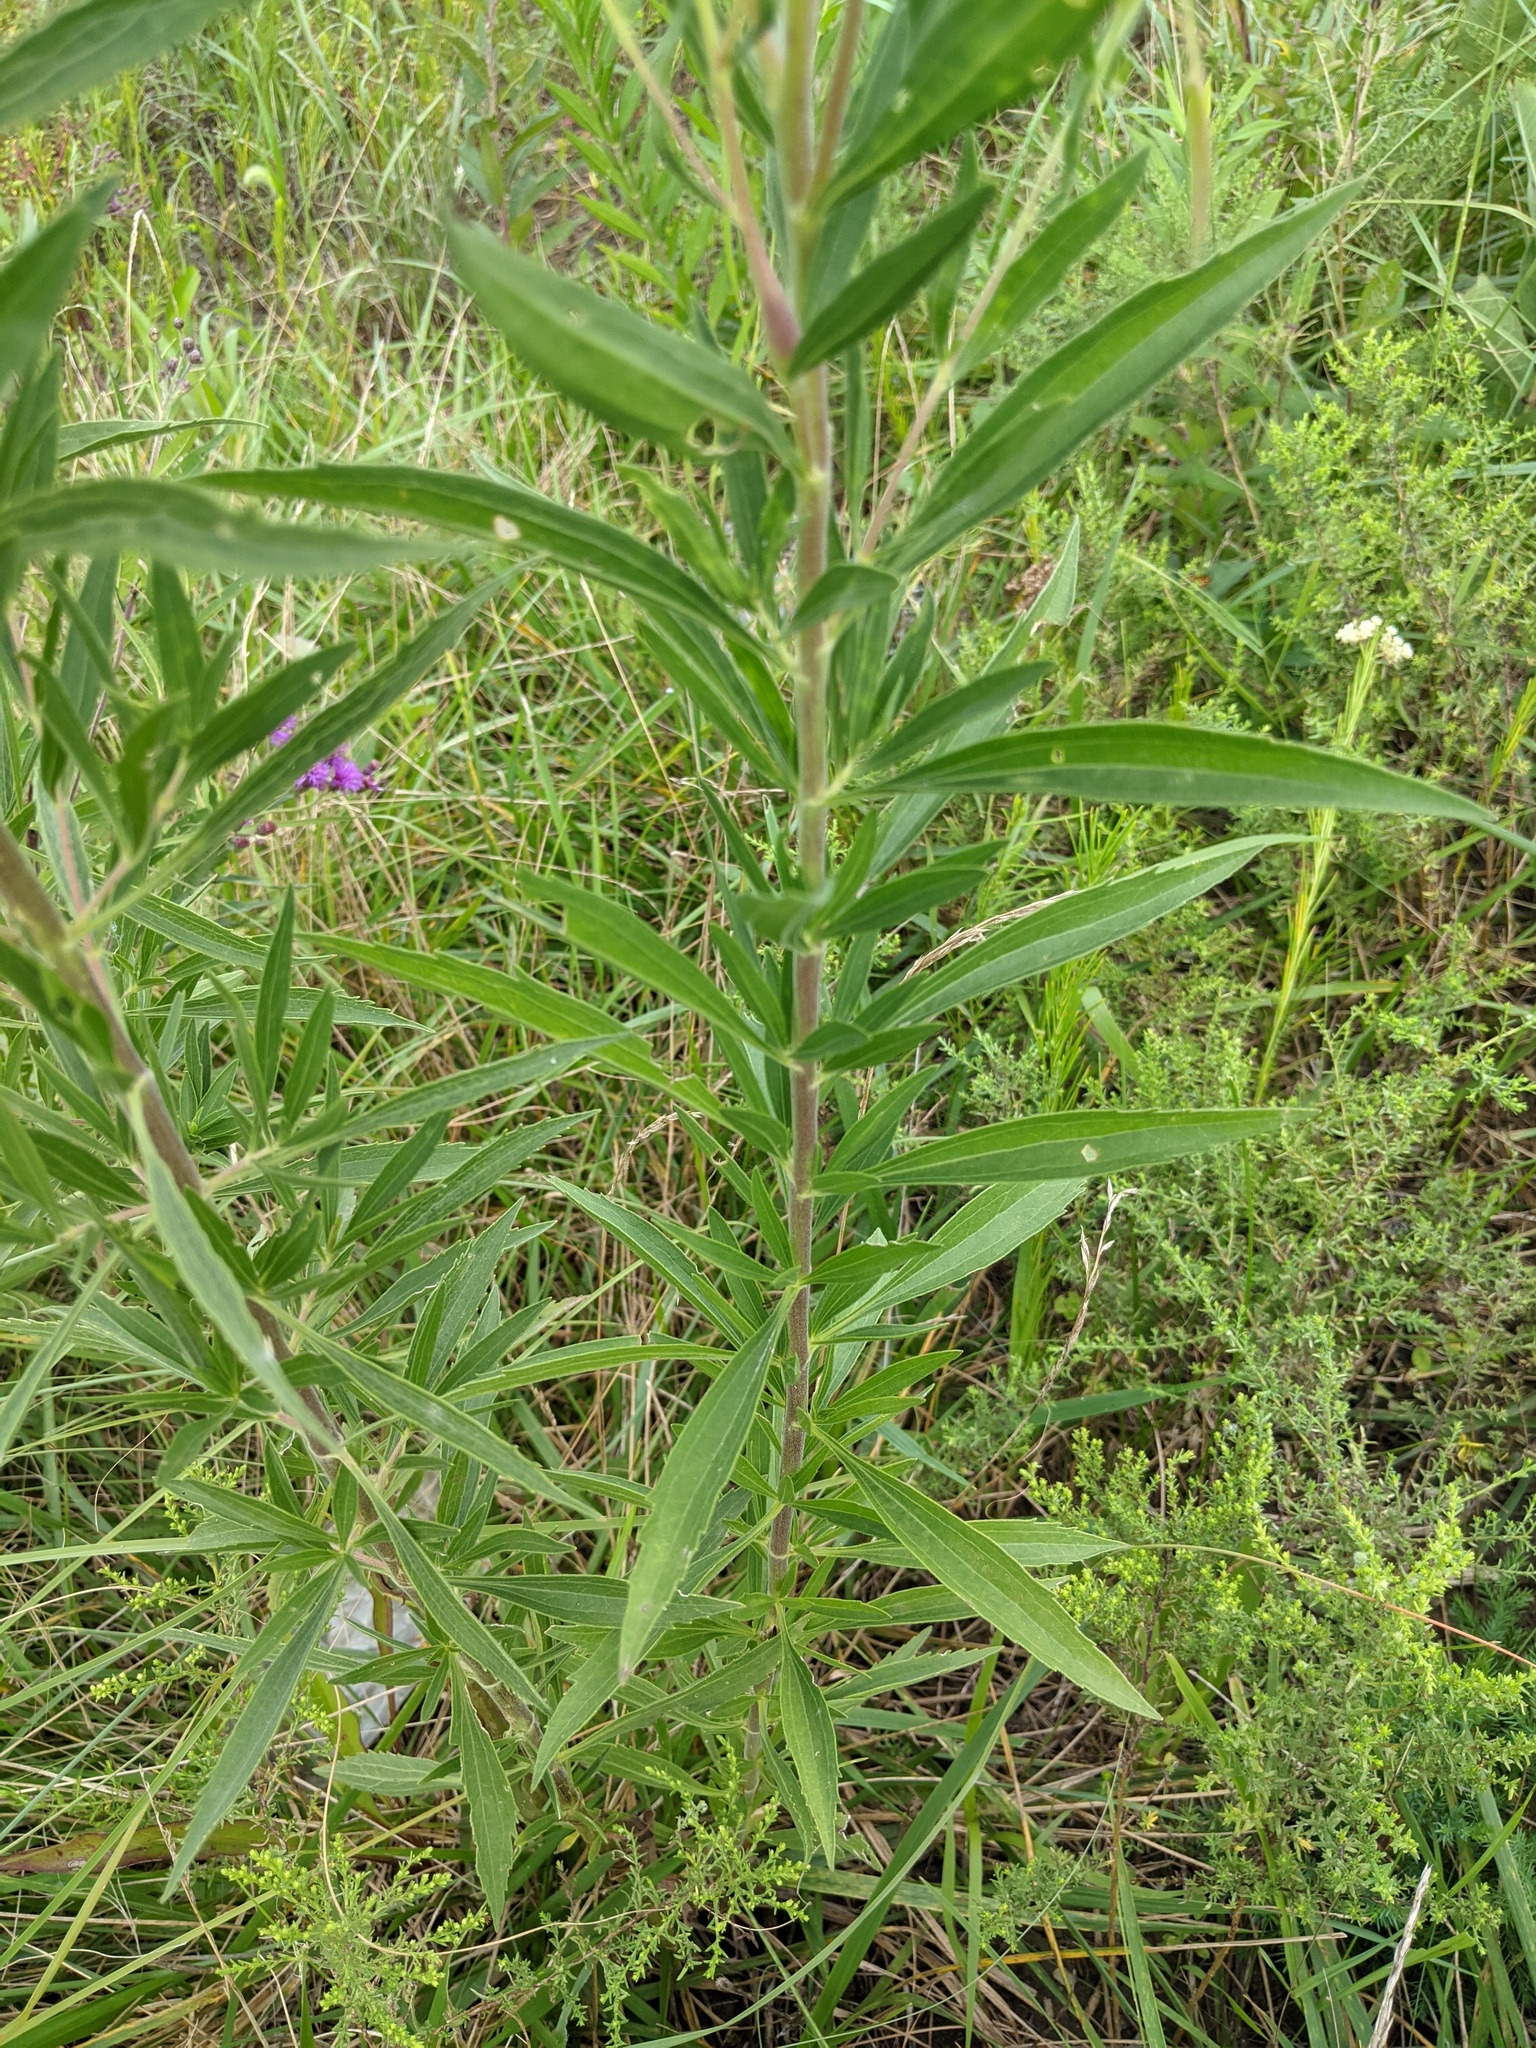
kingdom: Plantae
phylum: Tracheophyta
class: Magnoliopsida
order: Asterales
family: Asteraceae
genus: Eupatorium
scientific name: Eupatorium altissimum
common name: Tall thoroughwort
